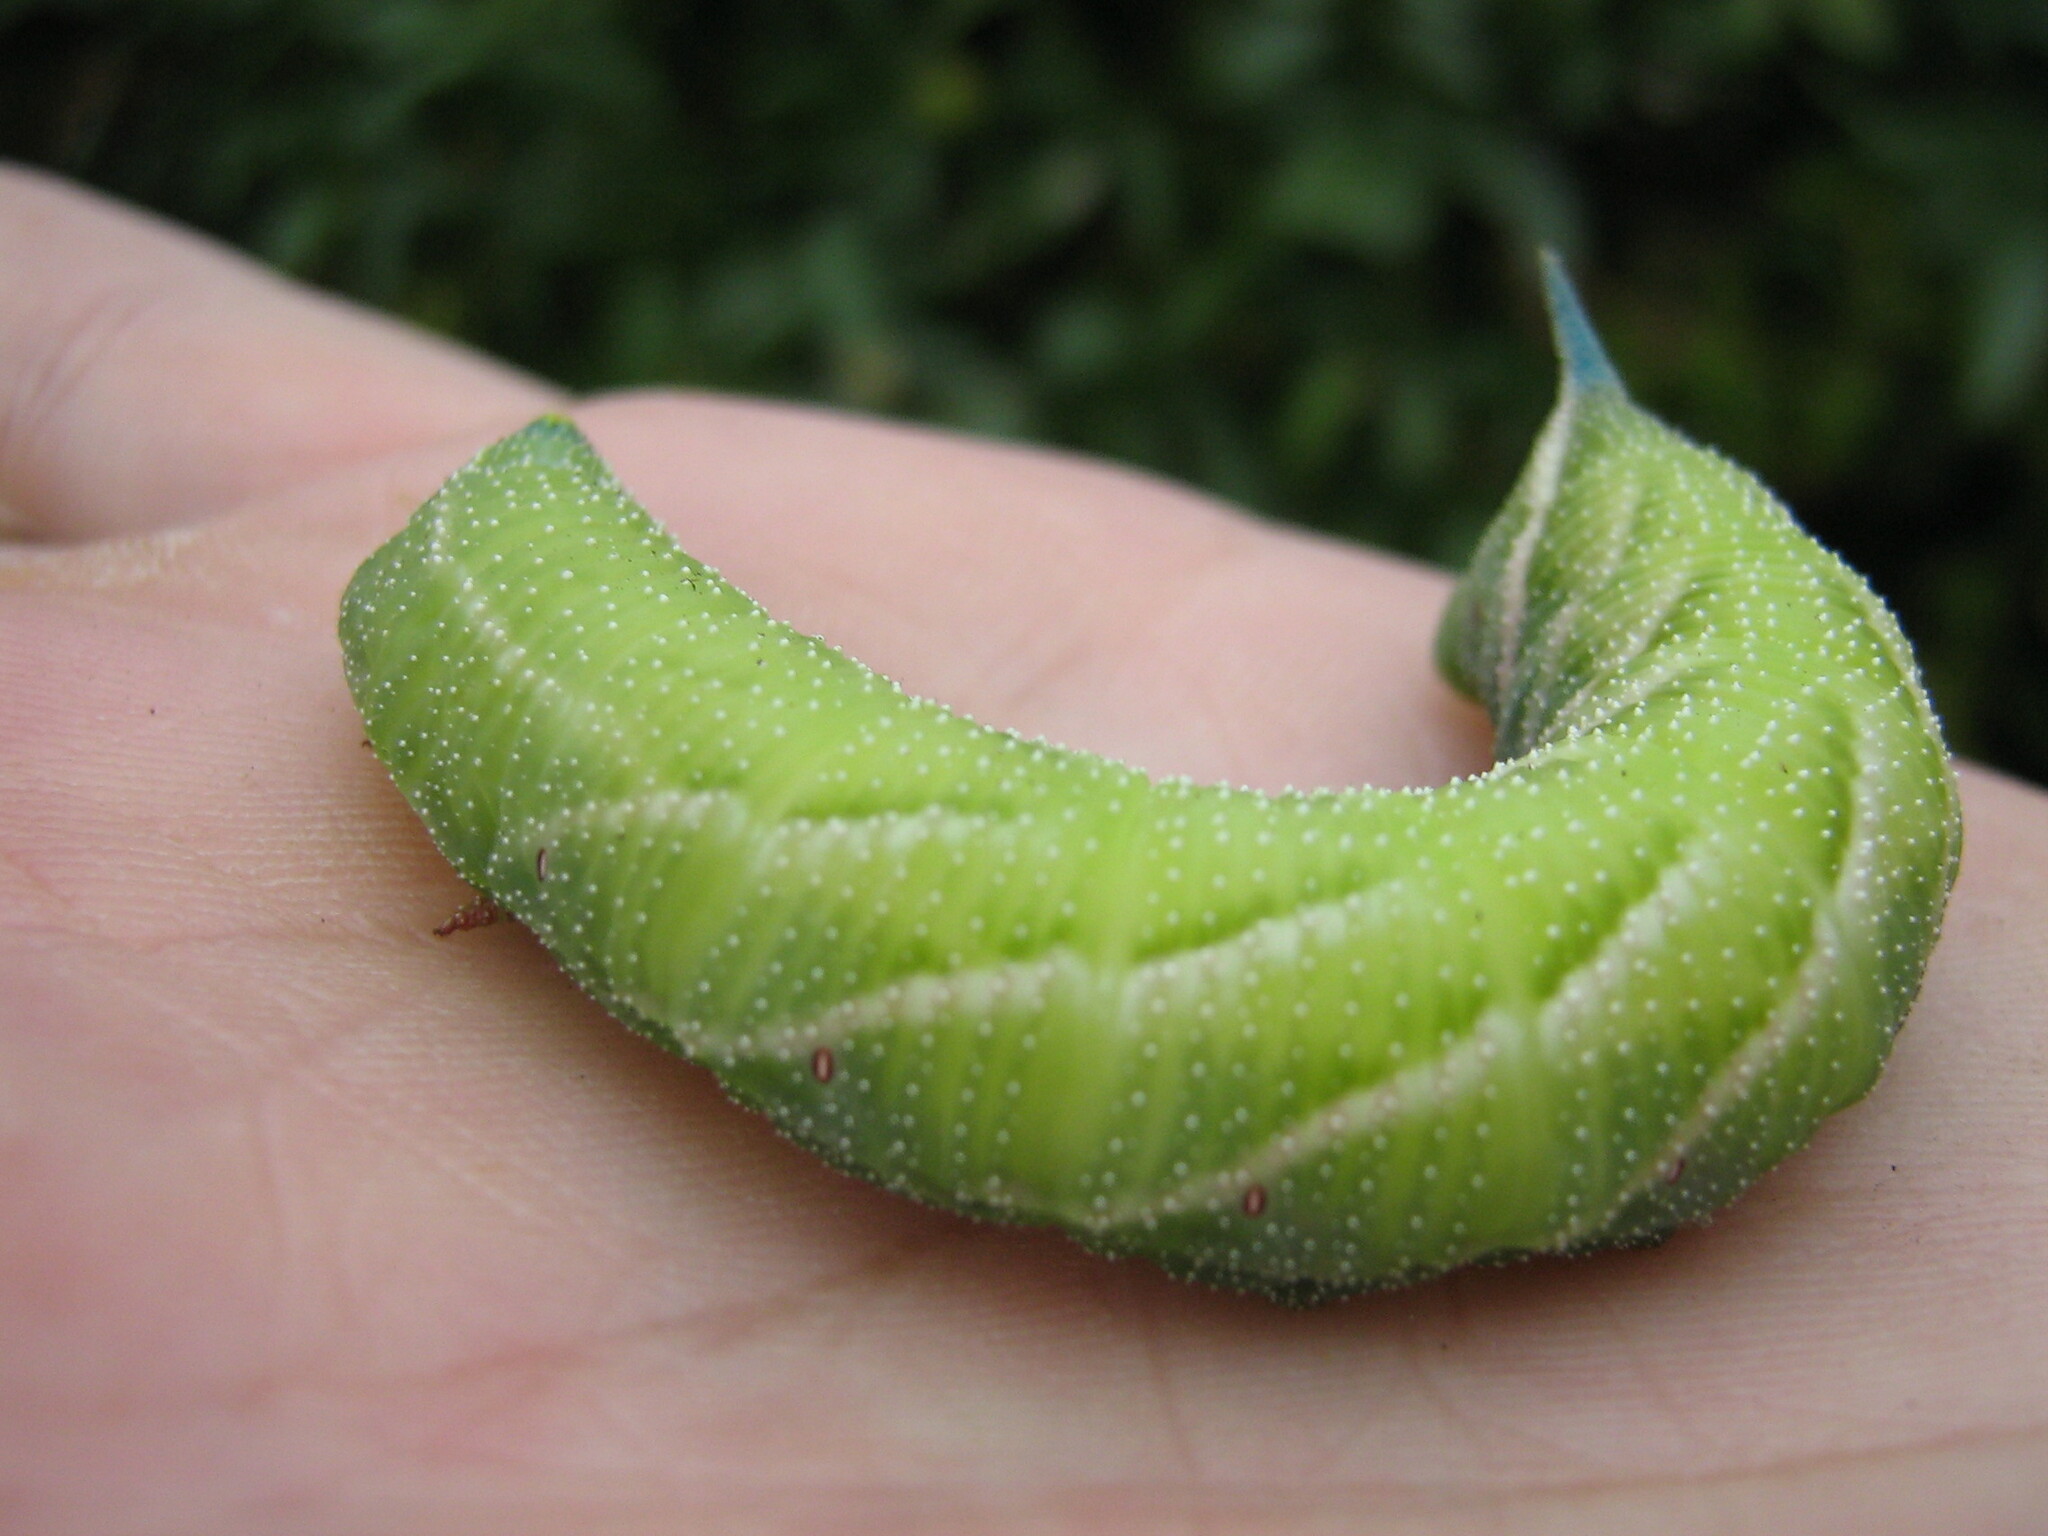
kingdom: Animalia
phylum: Arthropoda
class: Insecta
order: Lepidoptera
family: Sphingidae
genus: Smerinthus
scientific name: Smerinthus ocellata
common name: Eyed hawk-moth
